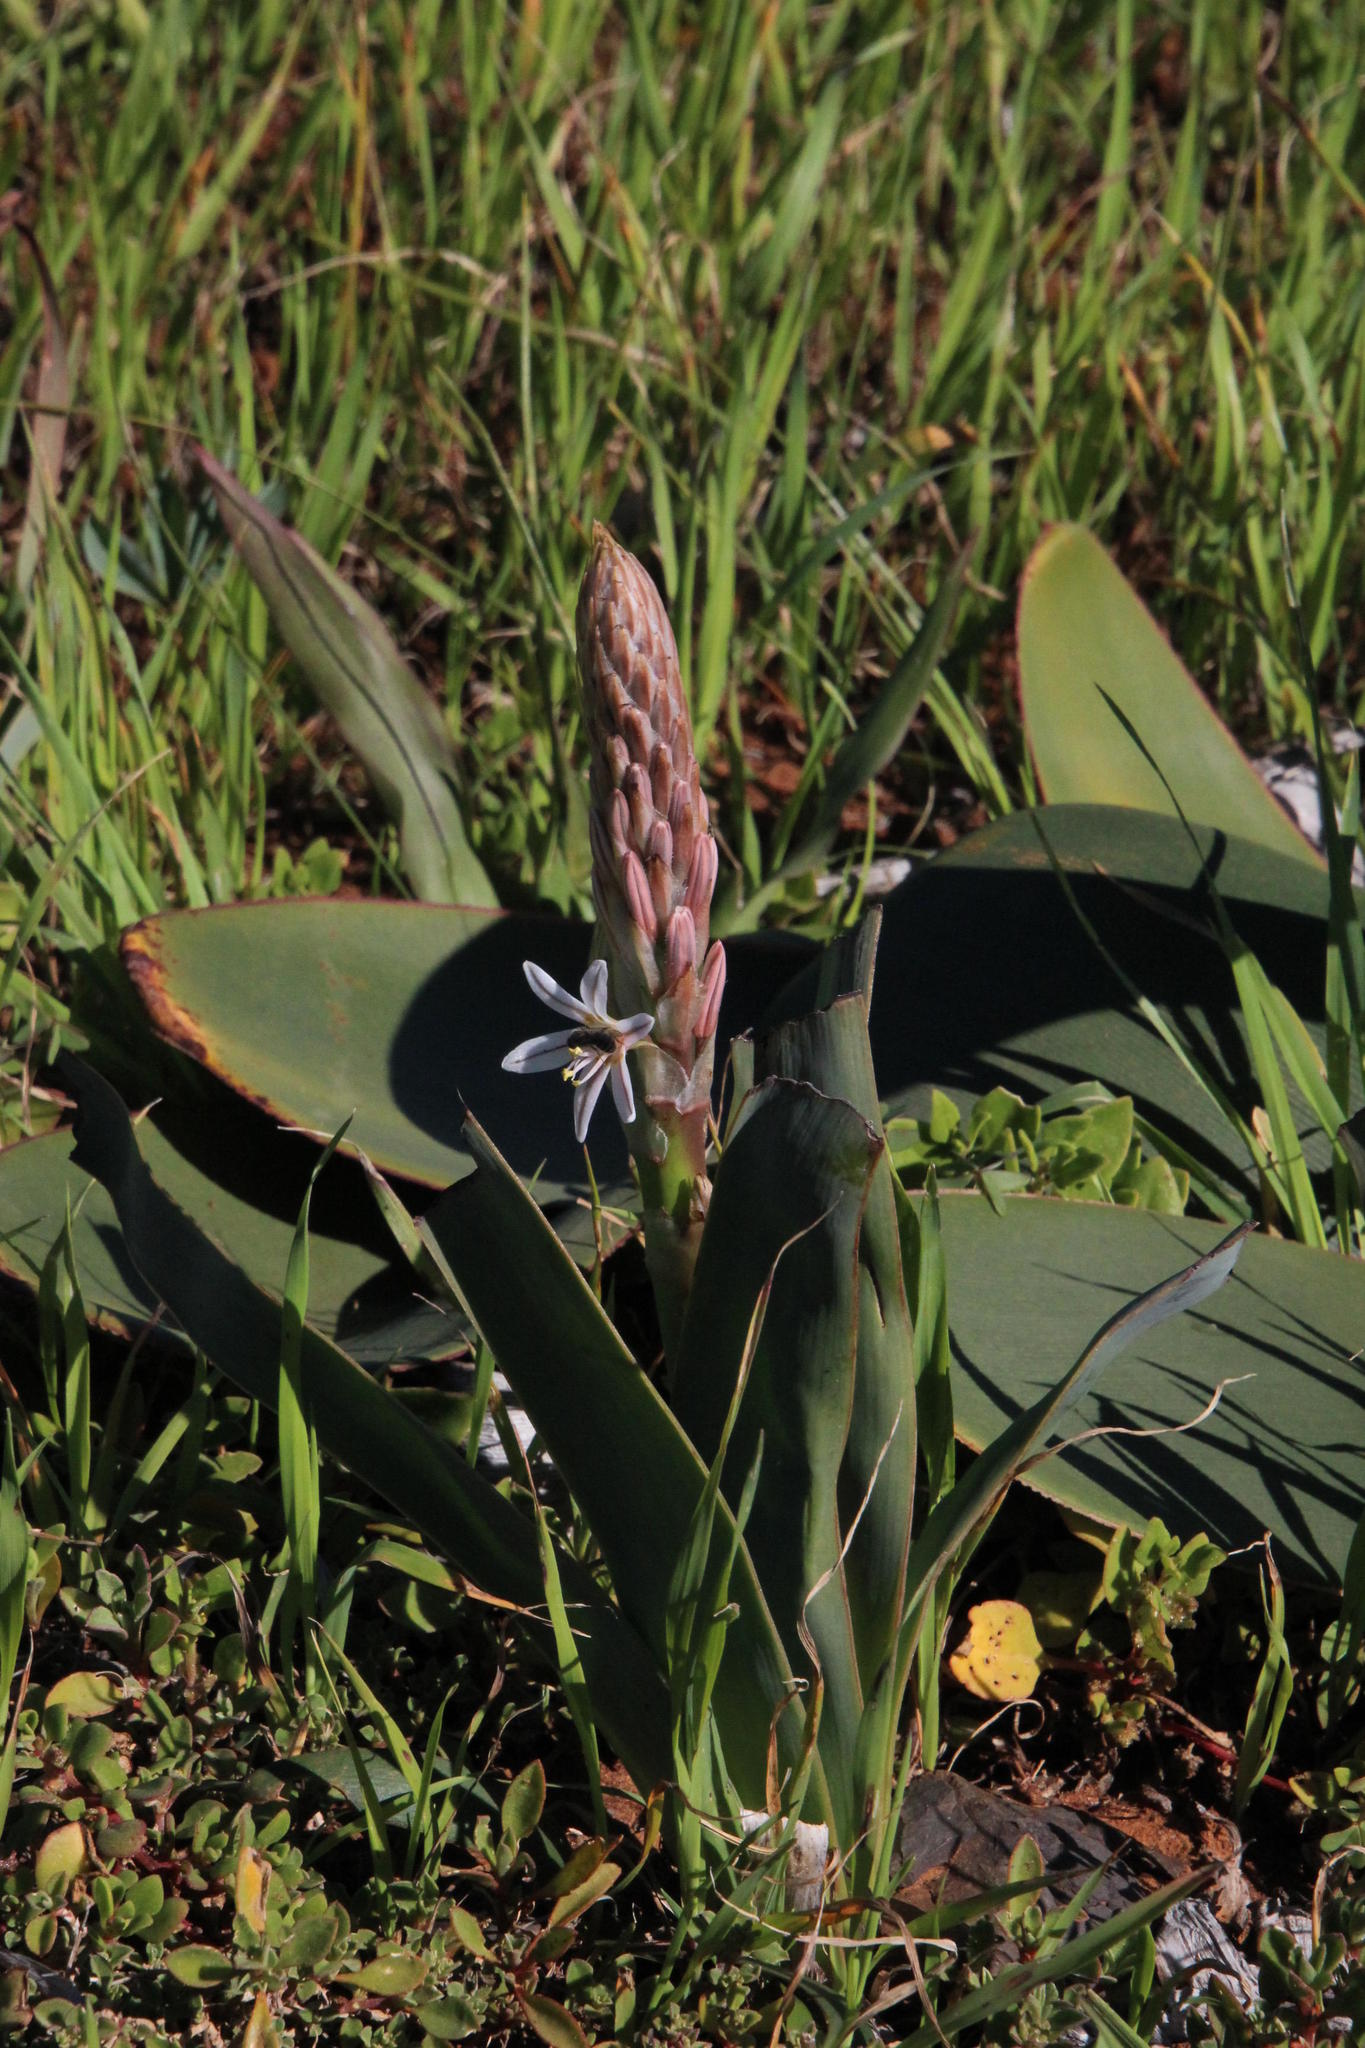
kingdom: Plantae
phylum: Tracheophyta
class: Liliopsida
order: Asparagales
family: Asphodelaceae
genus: Trachyandra
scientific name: Trachyandra falcata
